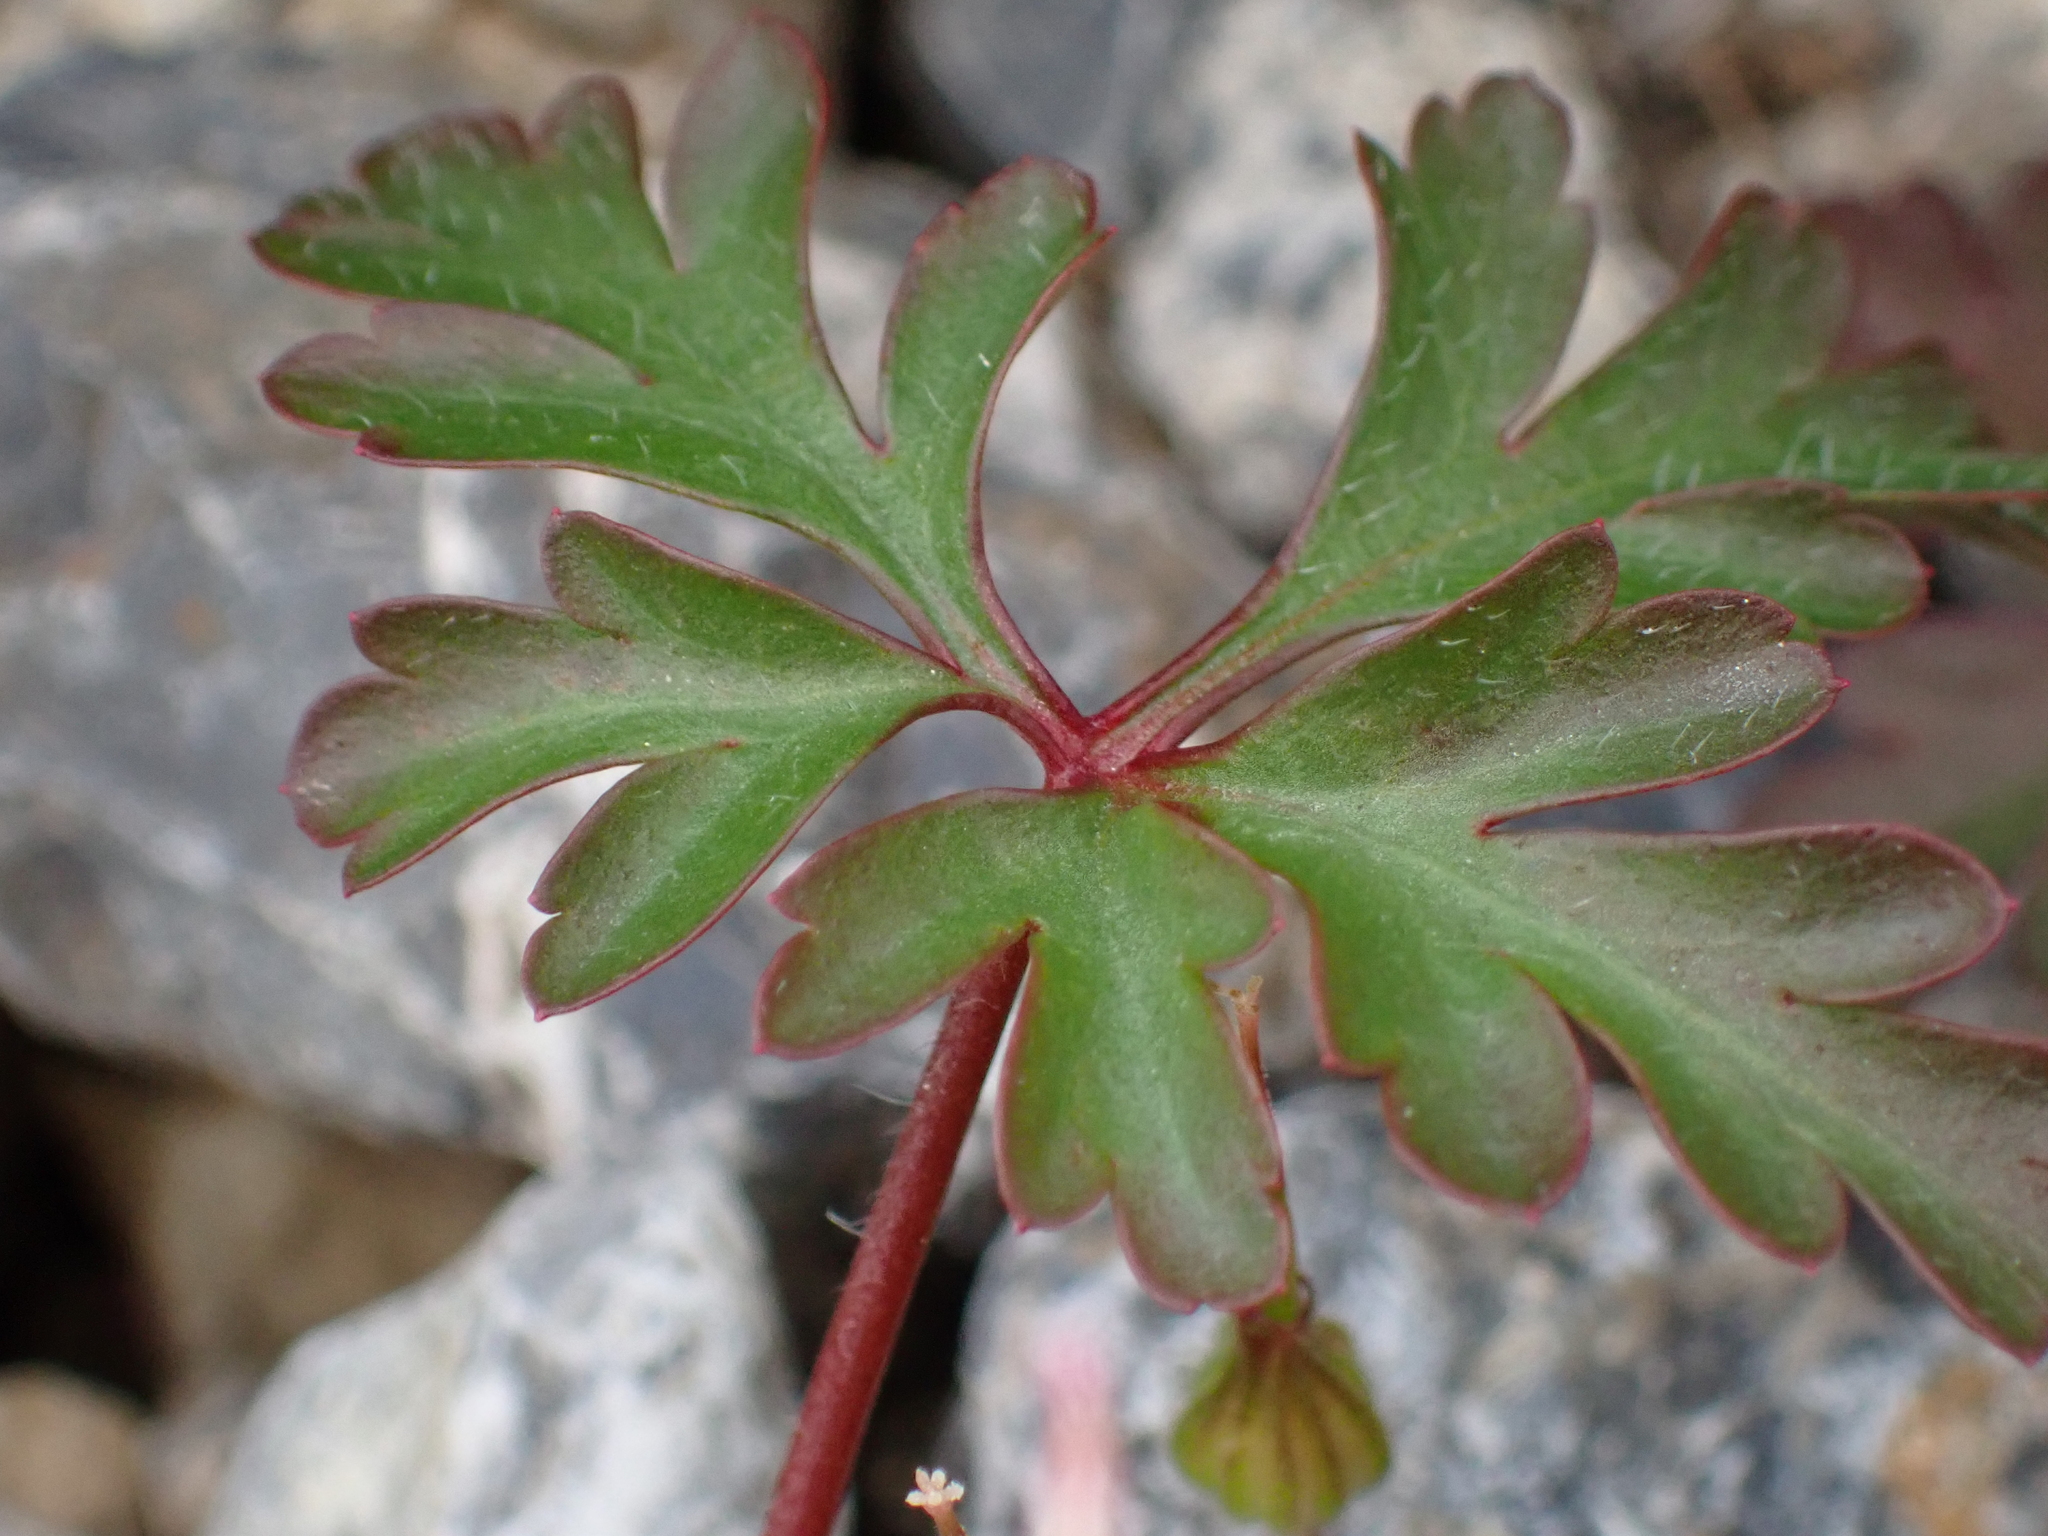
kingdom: Plantae
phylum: Tracheophyta
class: Magnoliopsida
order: Geraniales
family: Geraniaceae
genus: Geranium
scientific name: Geranium purpureum
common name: Little-robin
